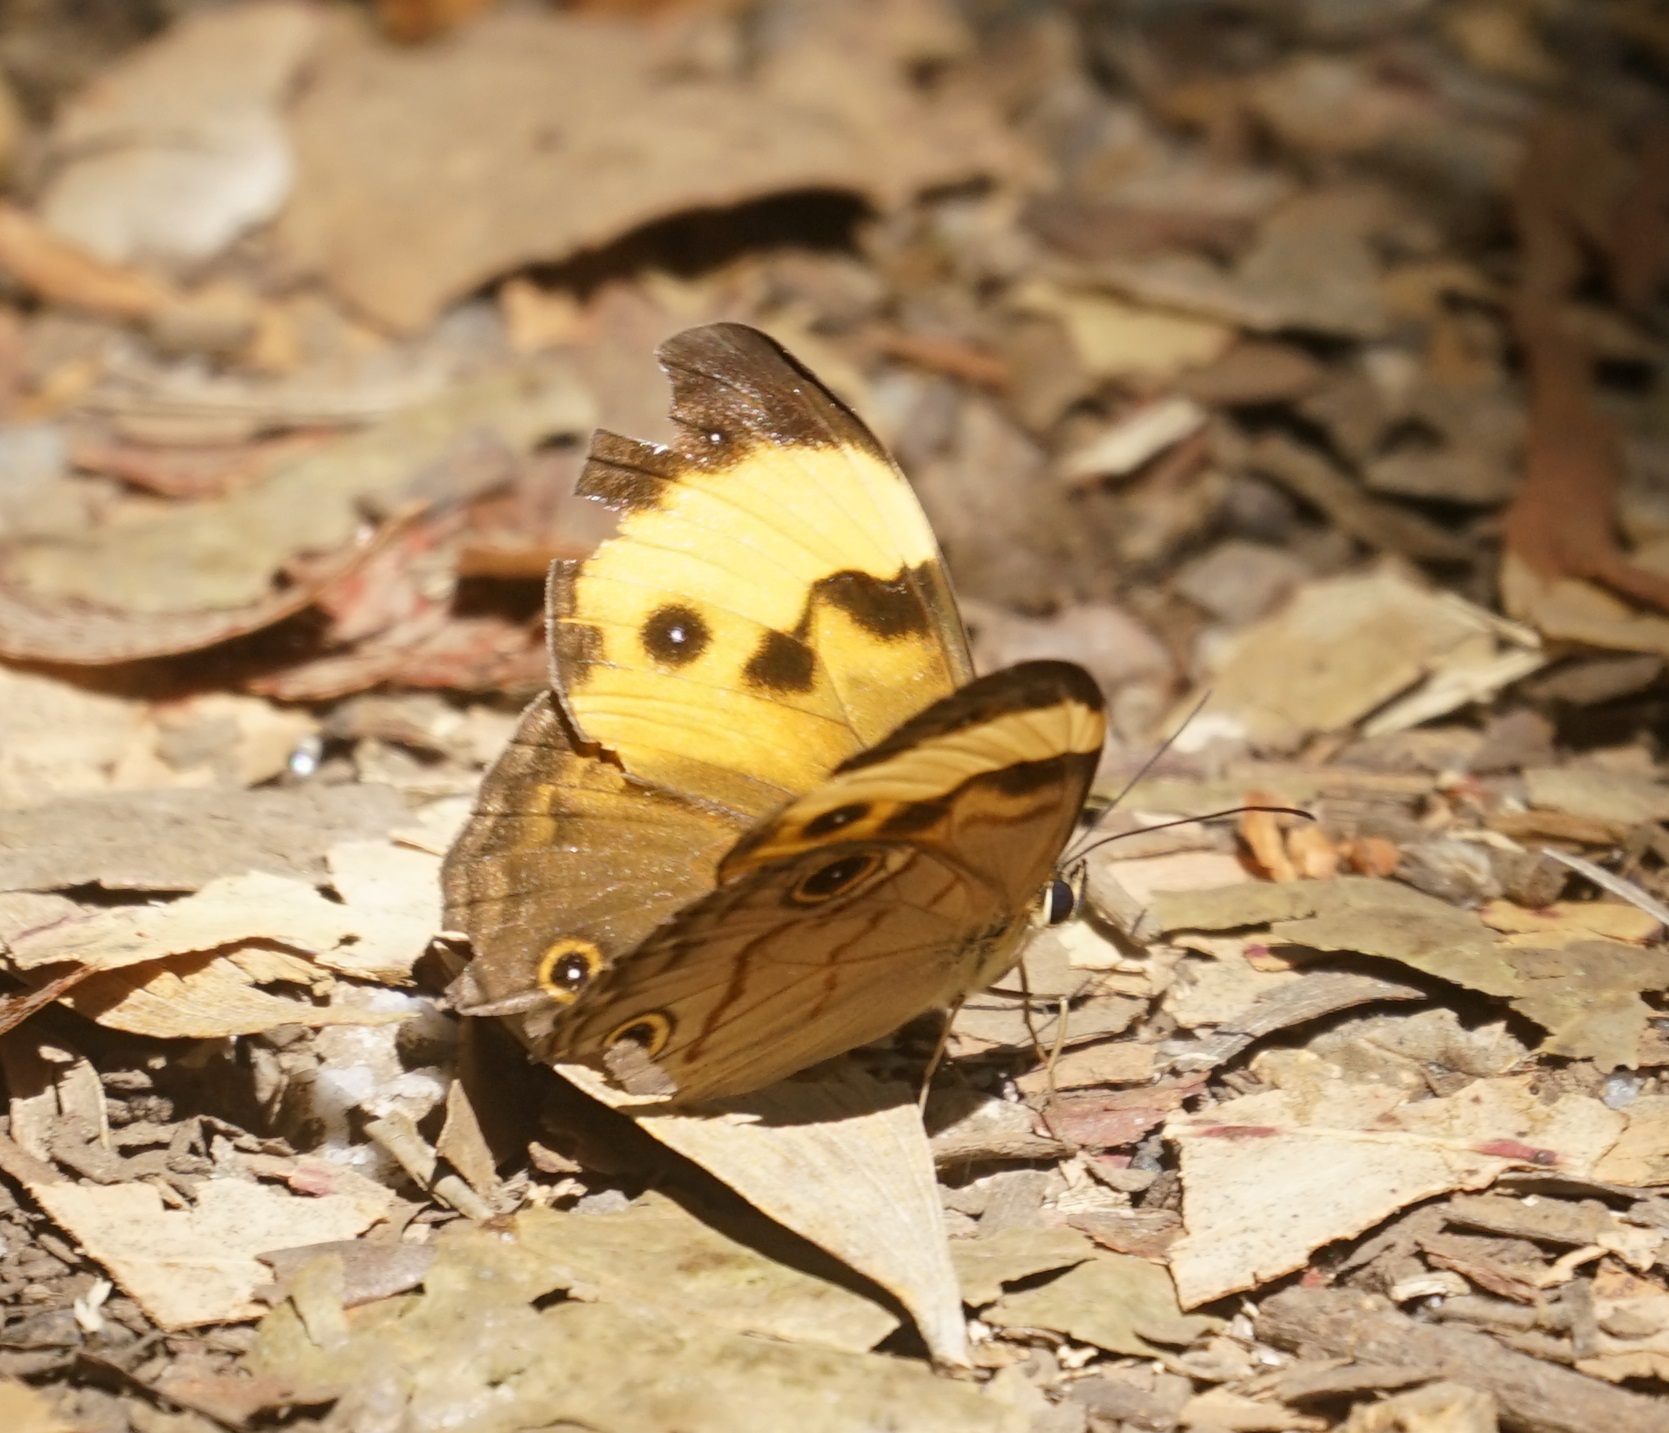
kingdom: Animalia
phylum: Arthropoda
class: Insecta
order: Lepidoptera
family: Nymphalidae
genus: Tisiphone
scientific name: Tisiphone helena
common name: Northern sword-grass brown
